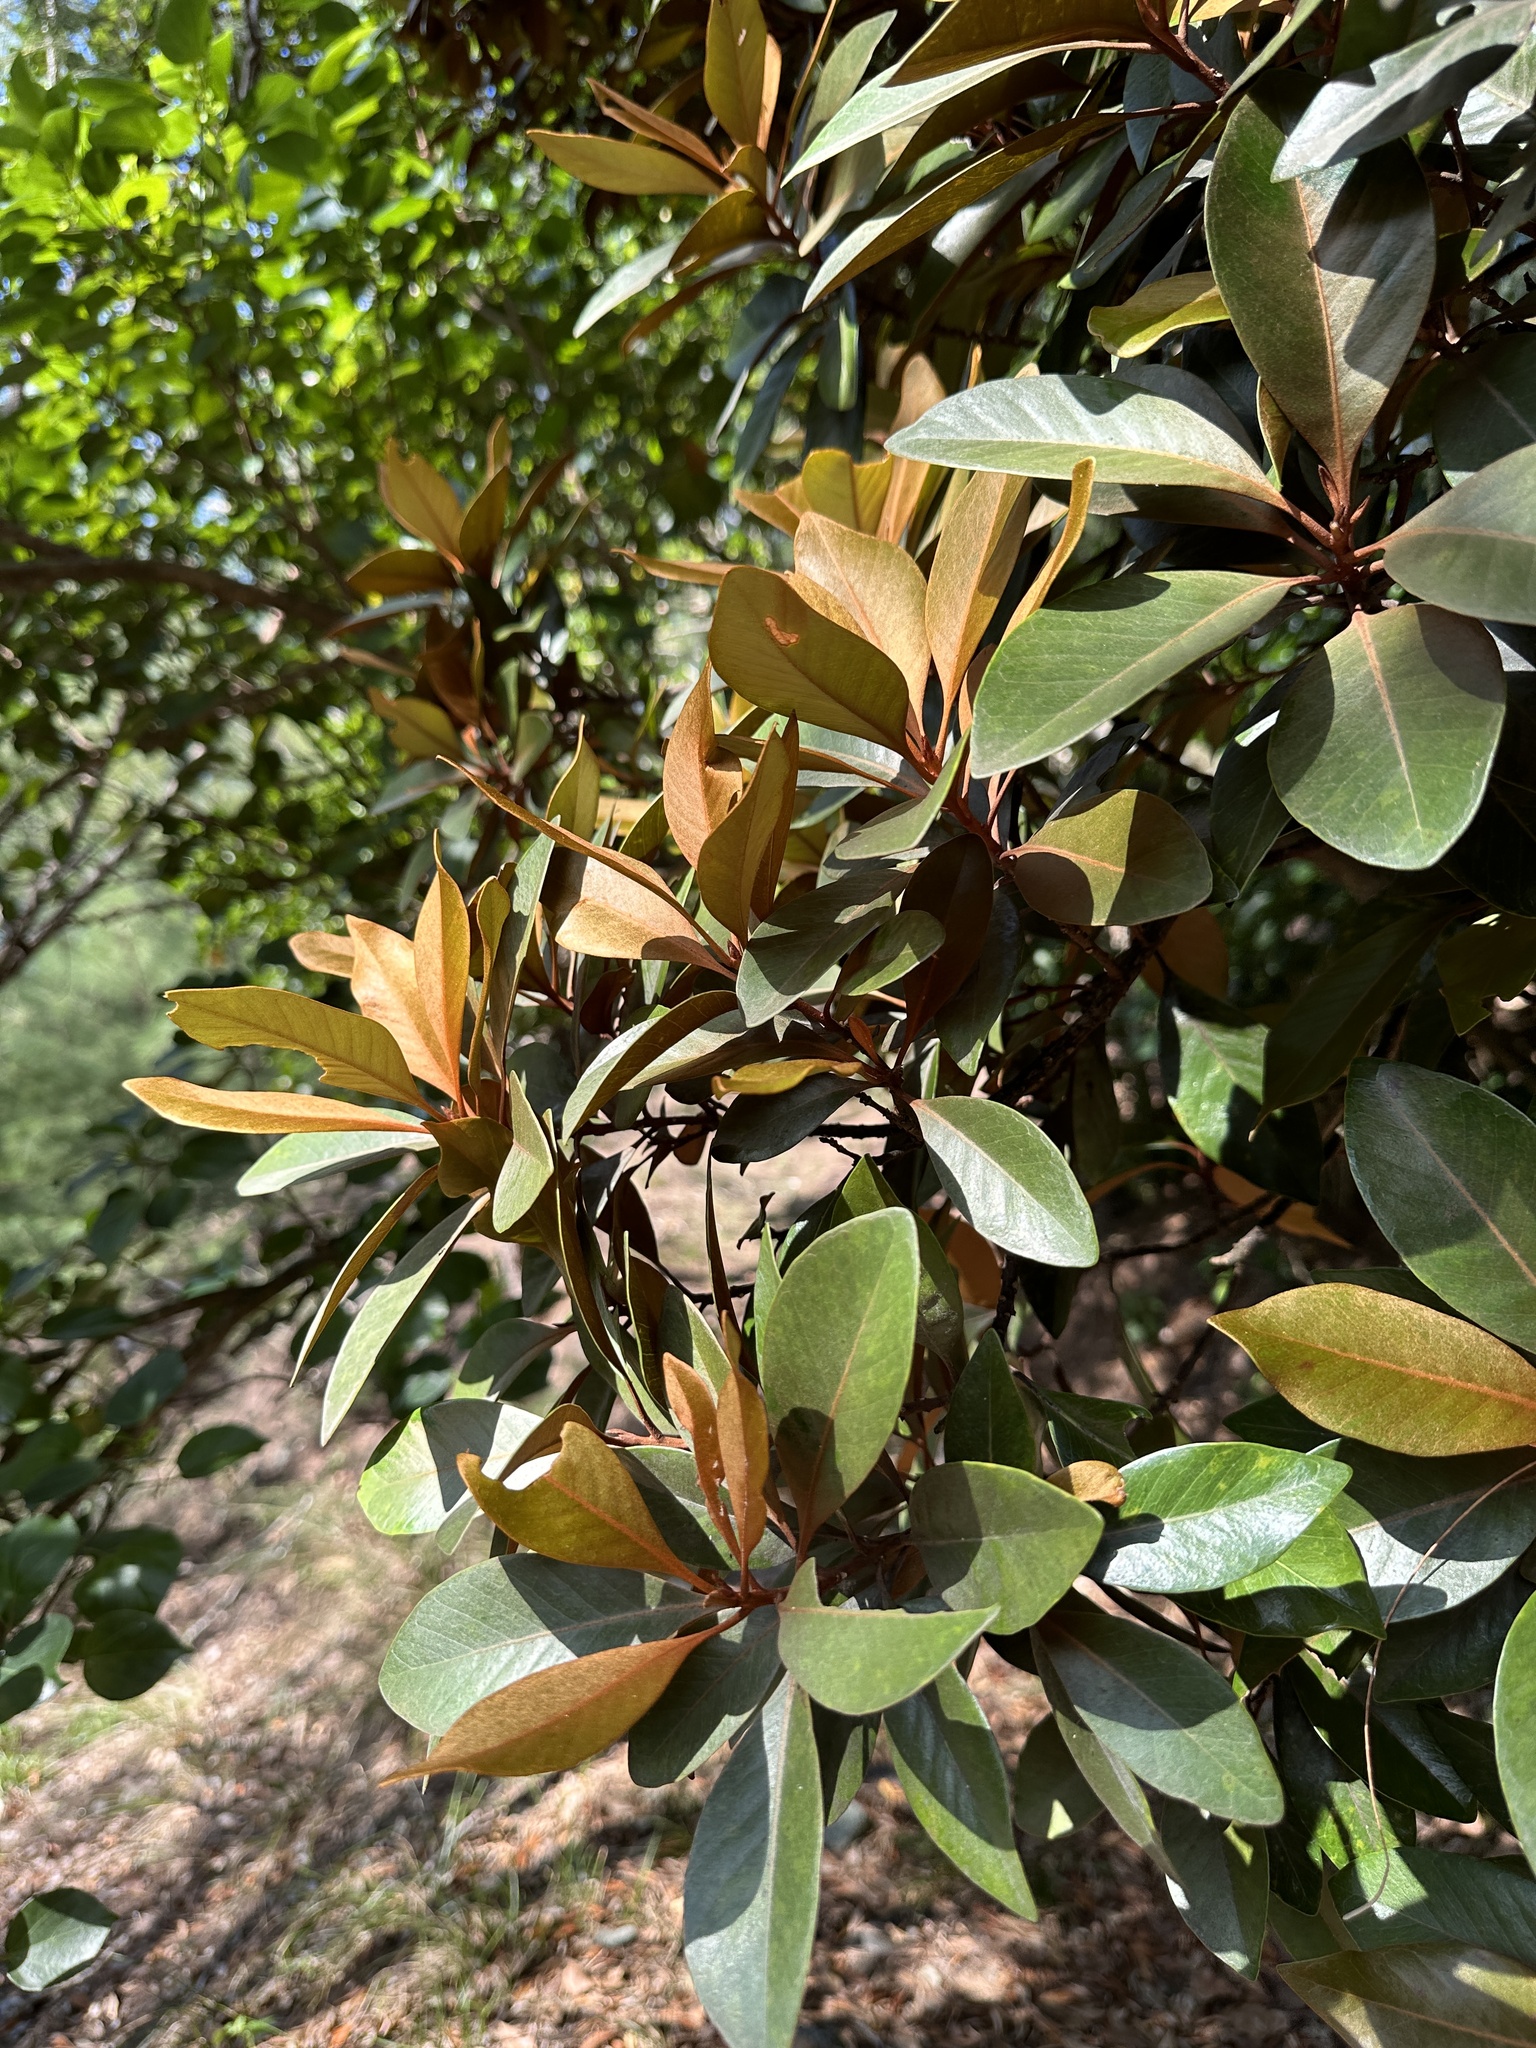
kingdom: Plantae
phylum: Tracheophyta
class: Magnoliopsida
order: Ericales
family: Sapotaceae
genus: Planchonella
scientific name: Planchonella obovata
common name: Black-ash
